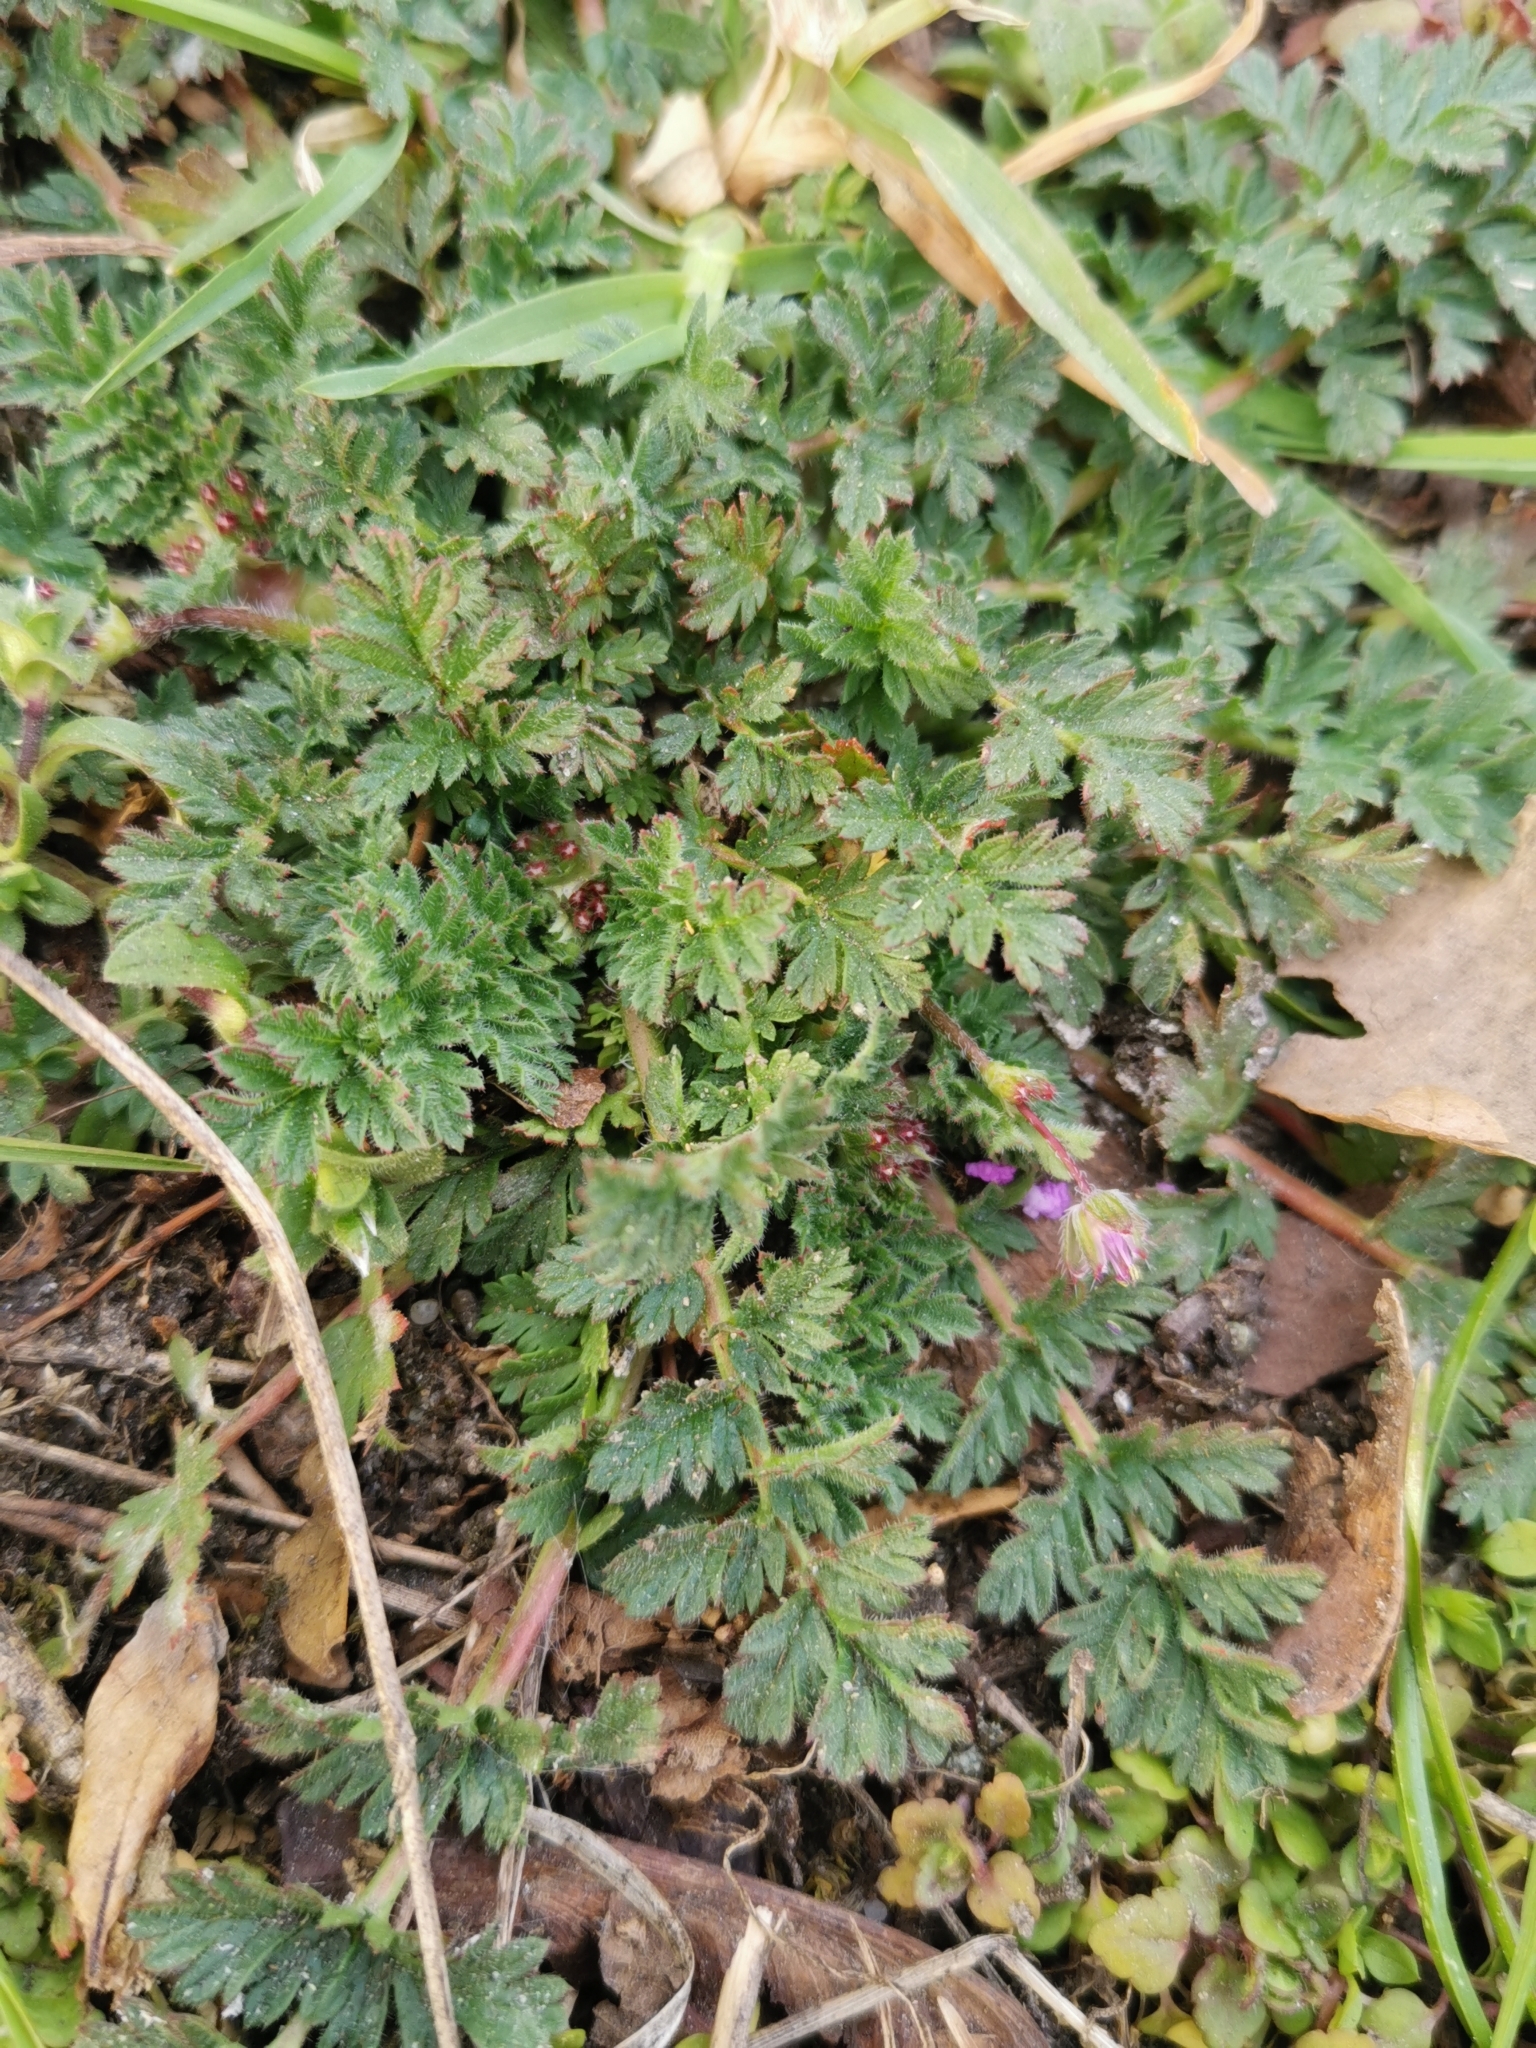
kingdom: Plantae
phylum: Tracheophyta
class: Magnoliopsida
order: Geraniales
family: Geraniaceae
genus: Erodium
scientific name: Erodium cicutarium
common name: Common stork's-bill
